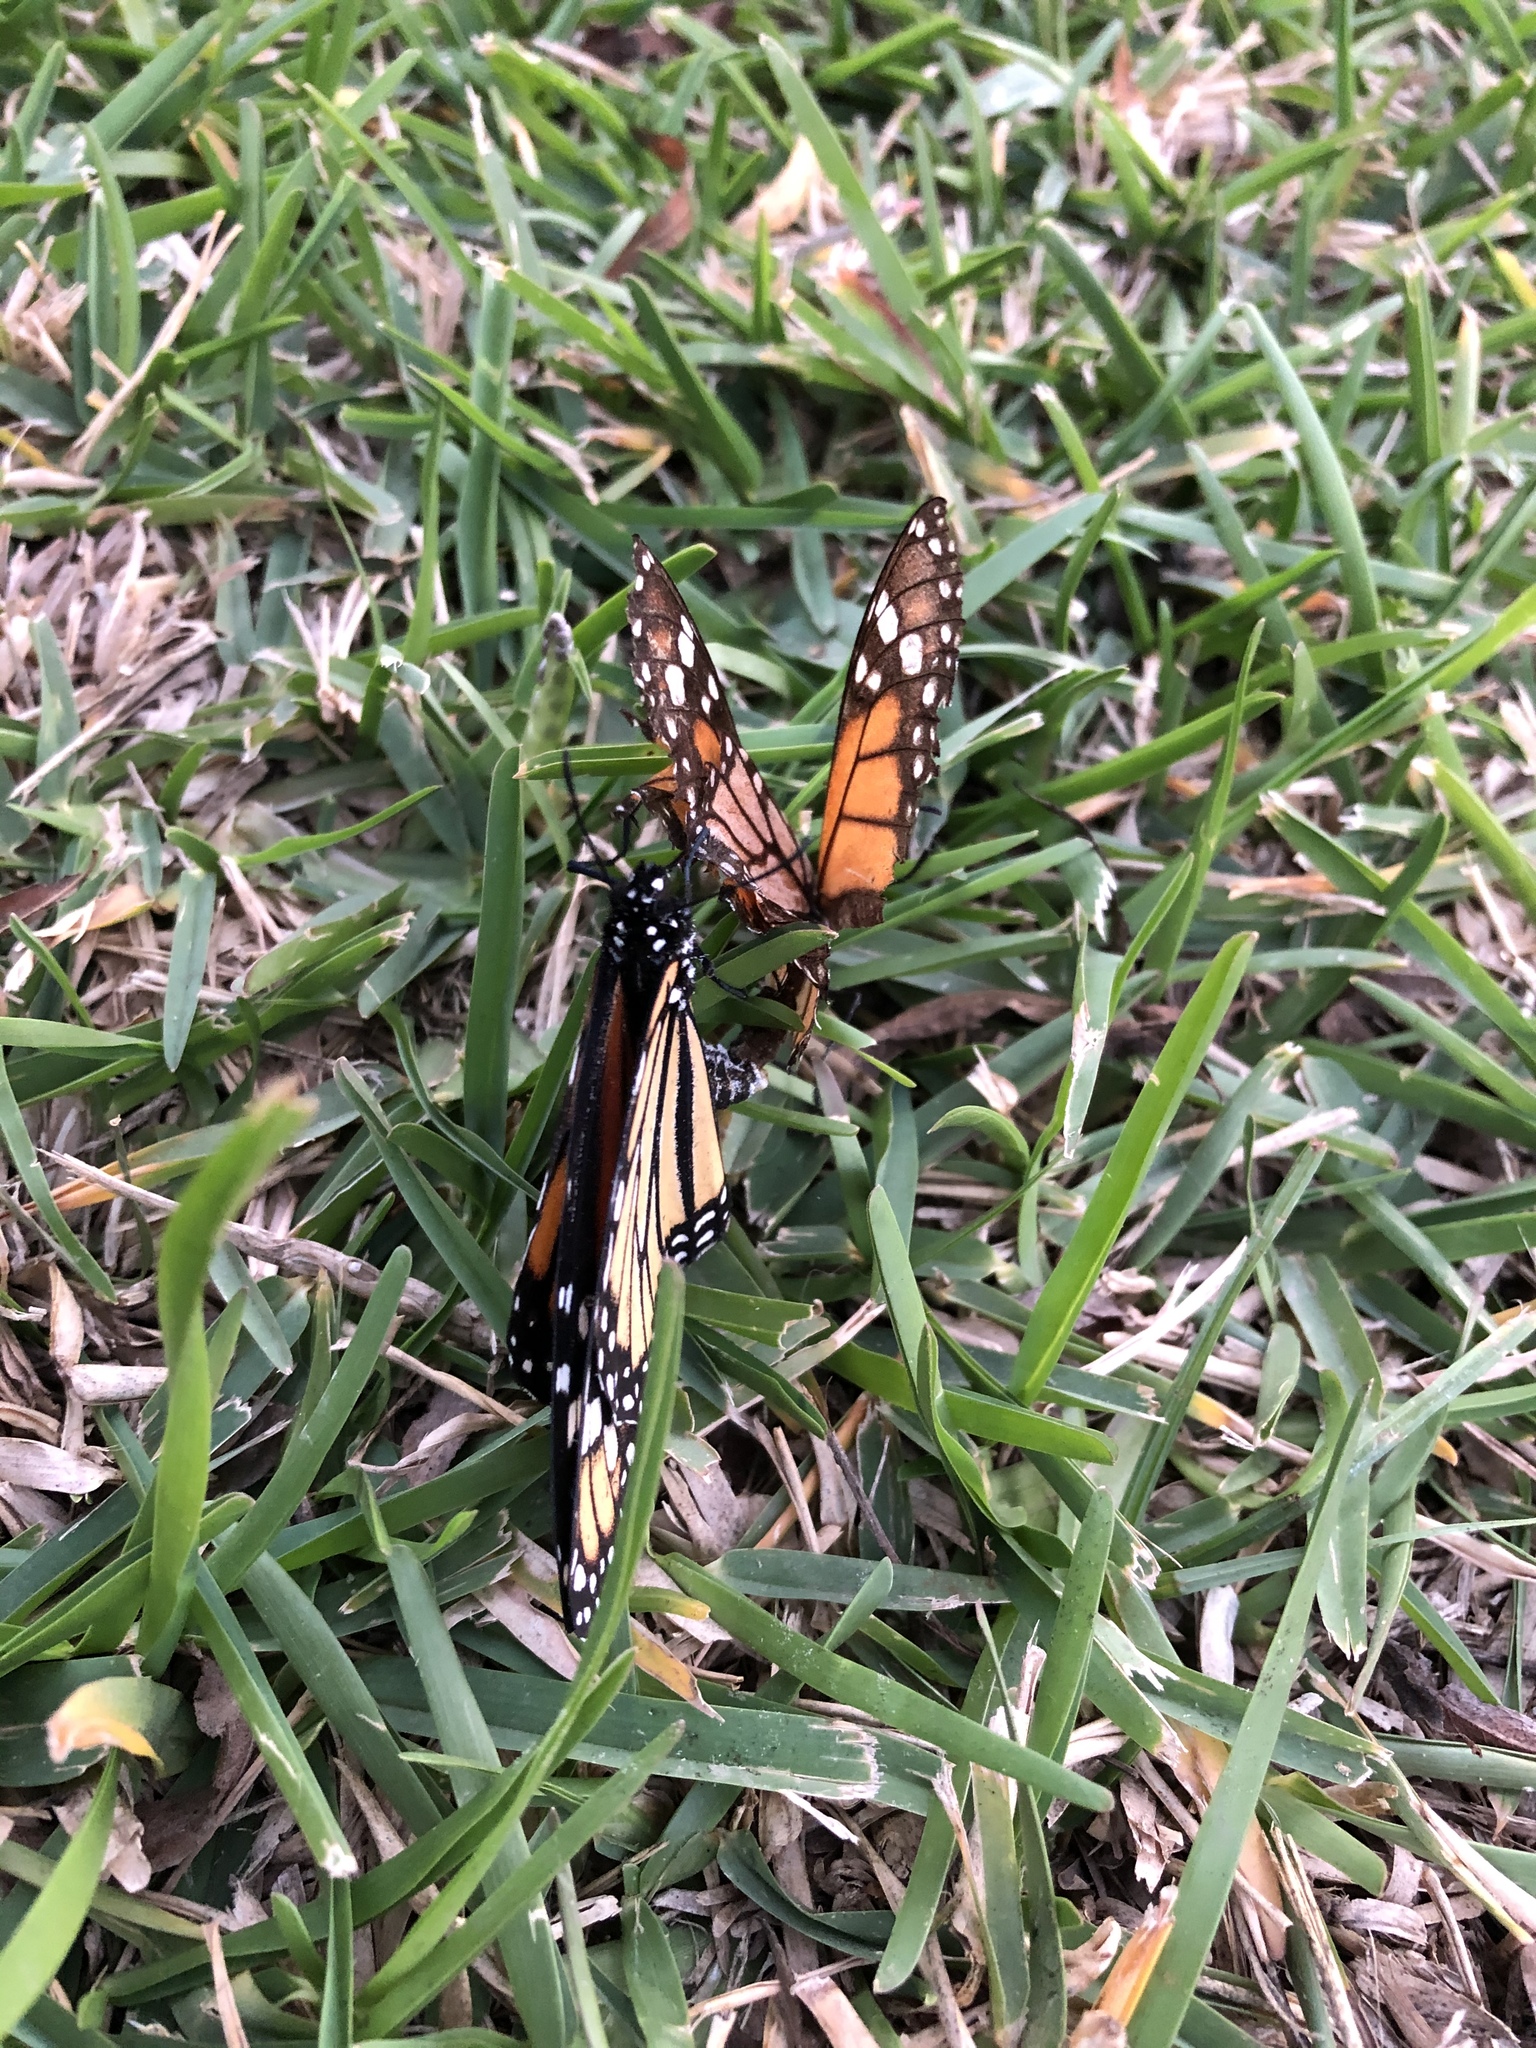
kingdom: Animalia
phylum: Arthropoda
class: Insecta
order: Lepidoptera
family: Nymphalidae
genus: Danaus
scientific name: Danaus plexippus
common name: Monarch
